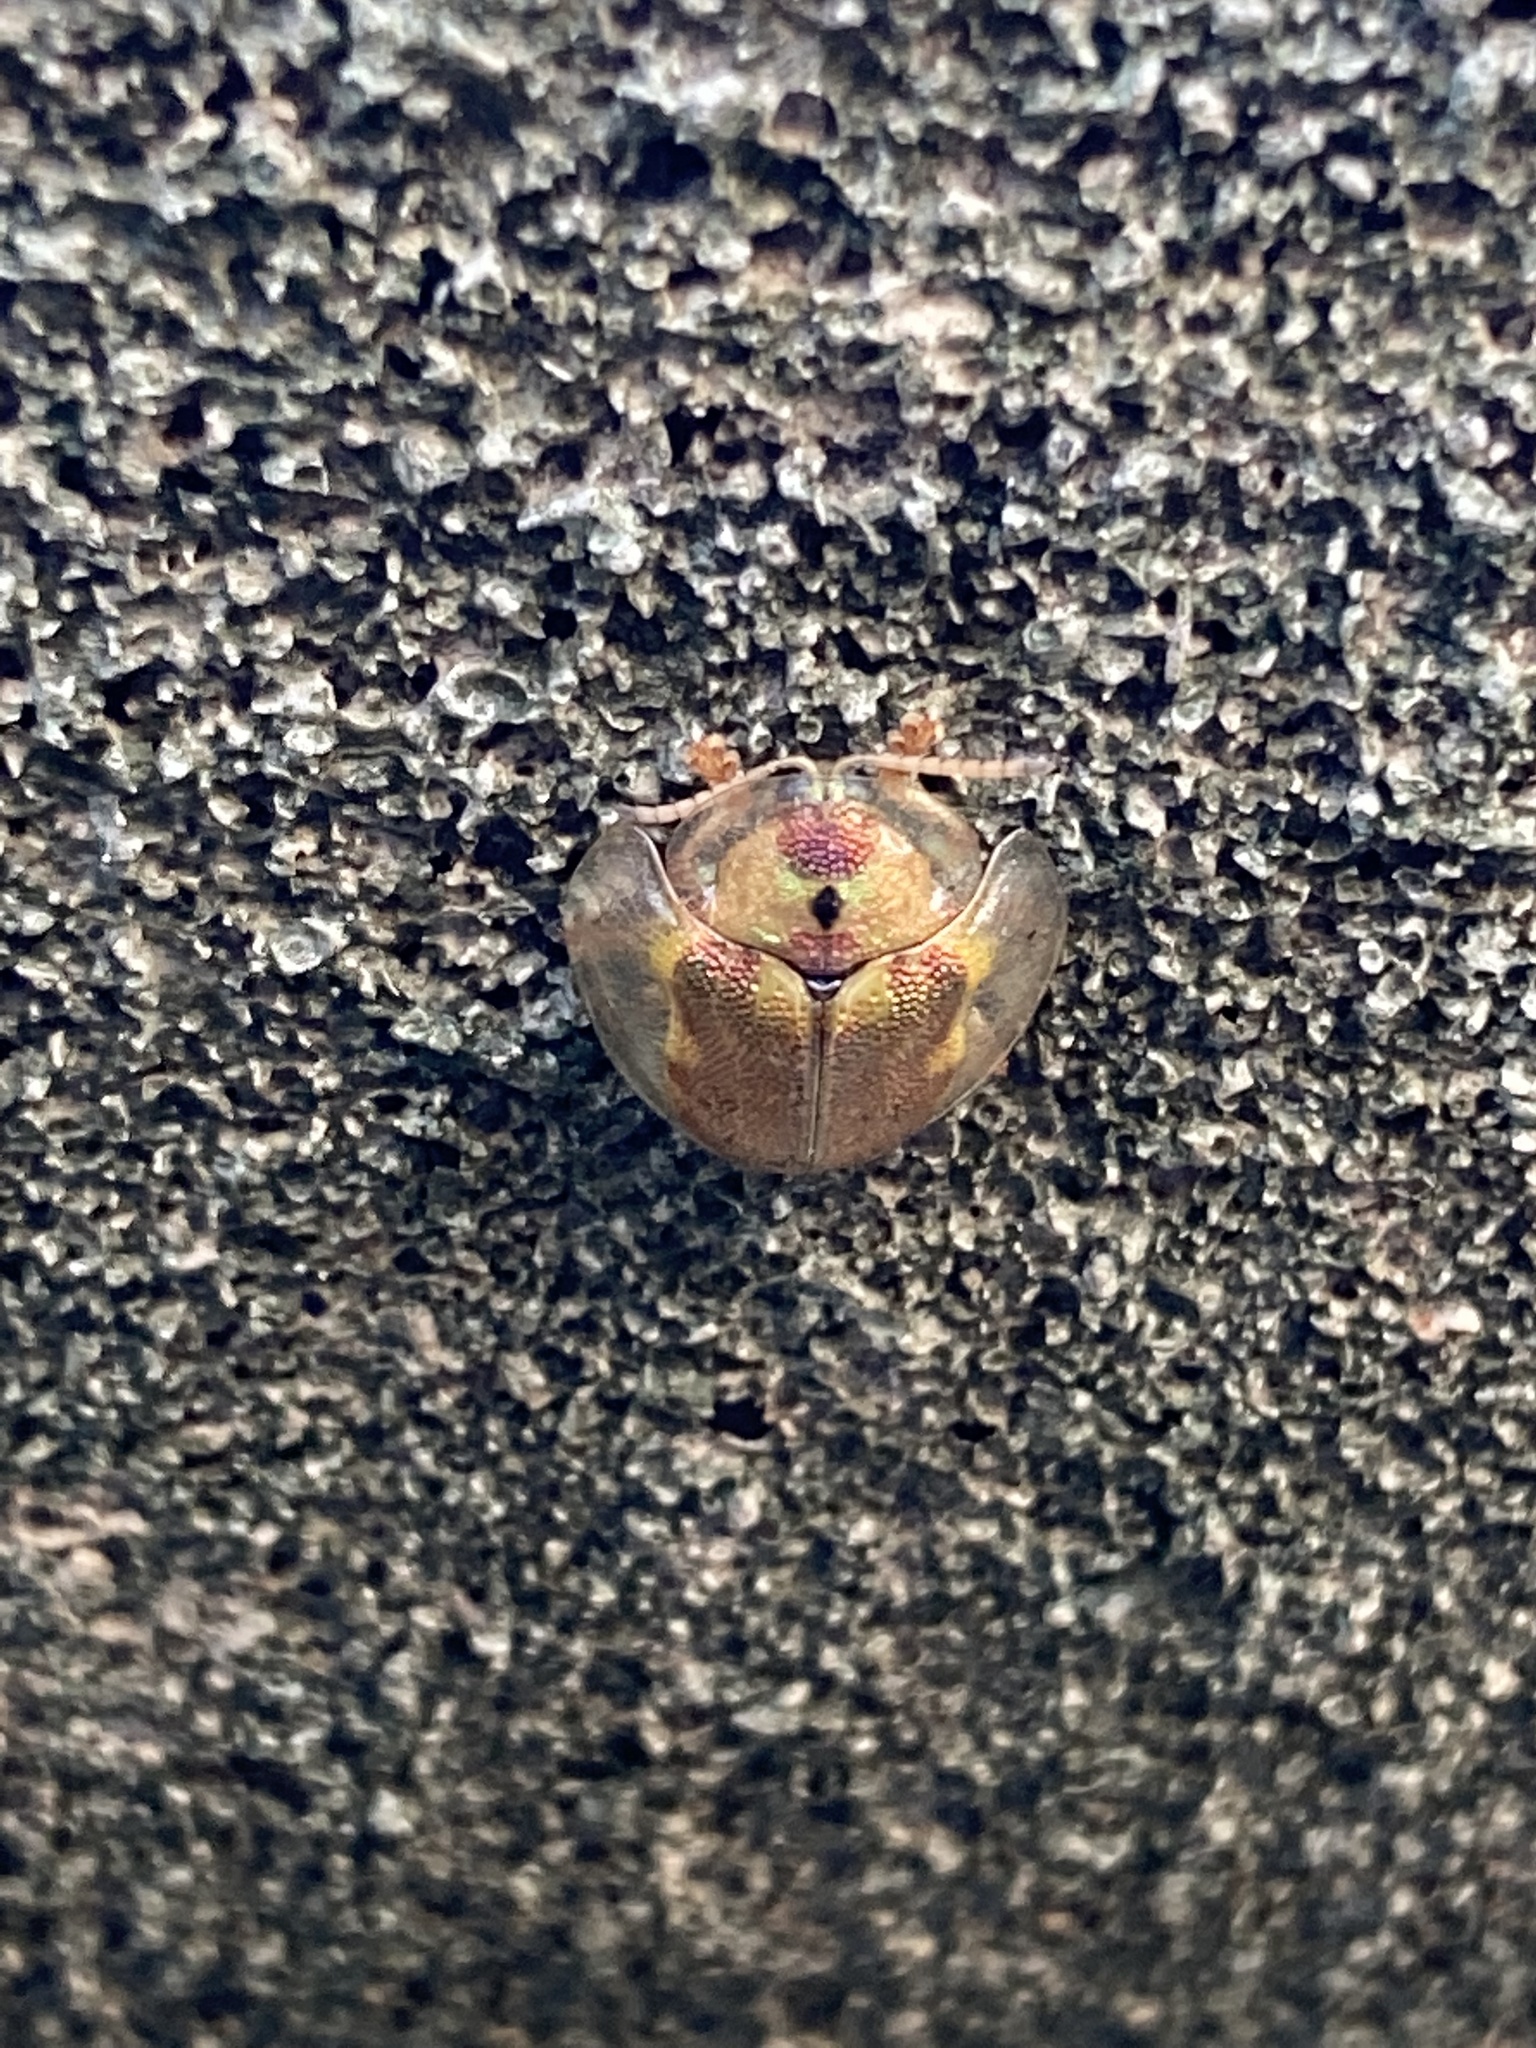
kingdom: Animalia
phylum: Arthropoda
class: Insecta
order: Coleoptera
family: Chrysomelidae
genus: Eurypepla
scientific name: Eurypepla calochroma
